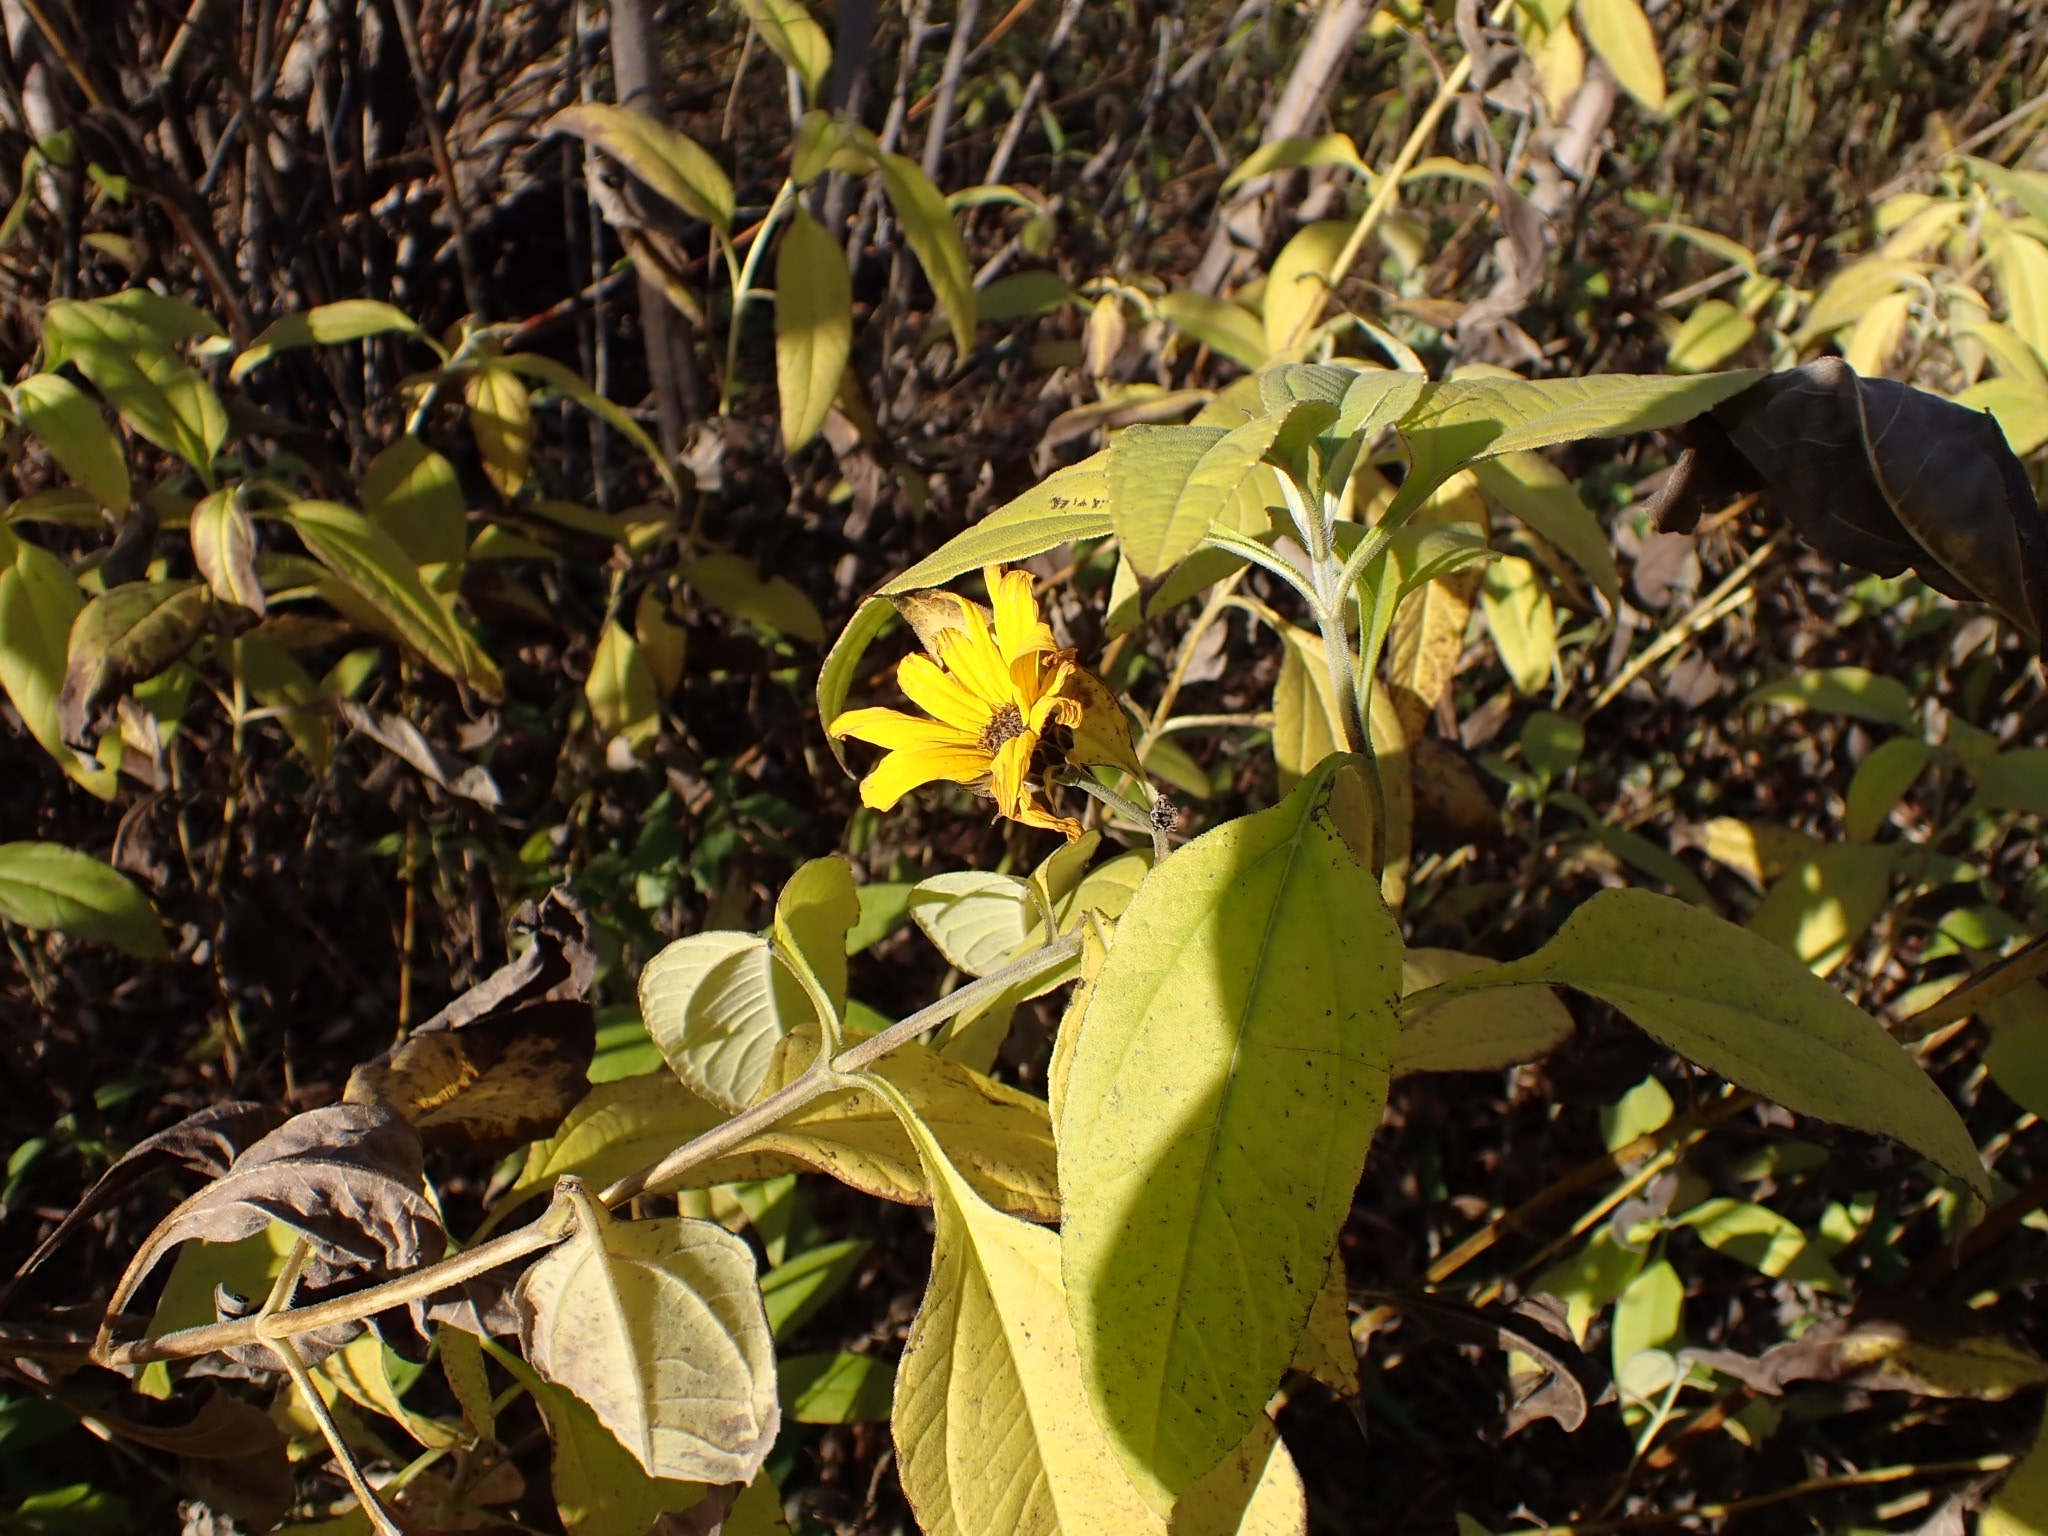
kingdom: Plantae
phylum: Tracheophyta
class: Magnoliopsida
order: Asterales
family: Asteraceae
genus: Helianthus
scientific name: Helianthus tuberosus
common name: Jerusalem artichoke
